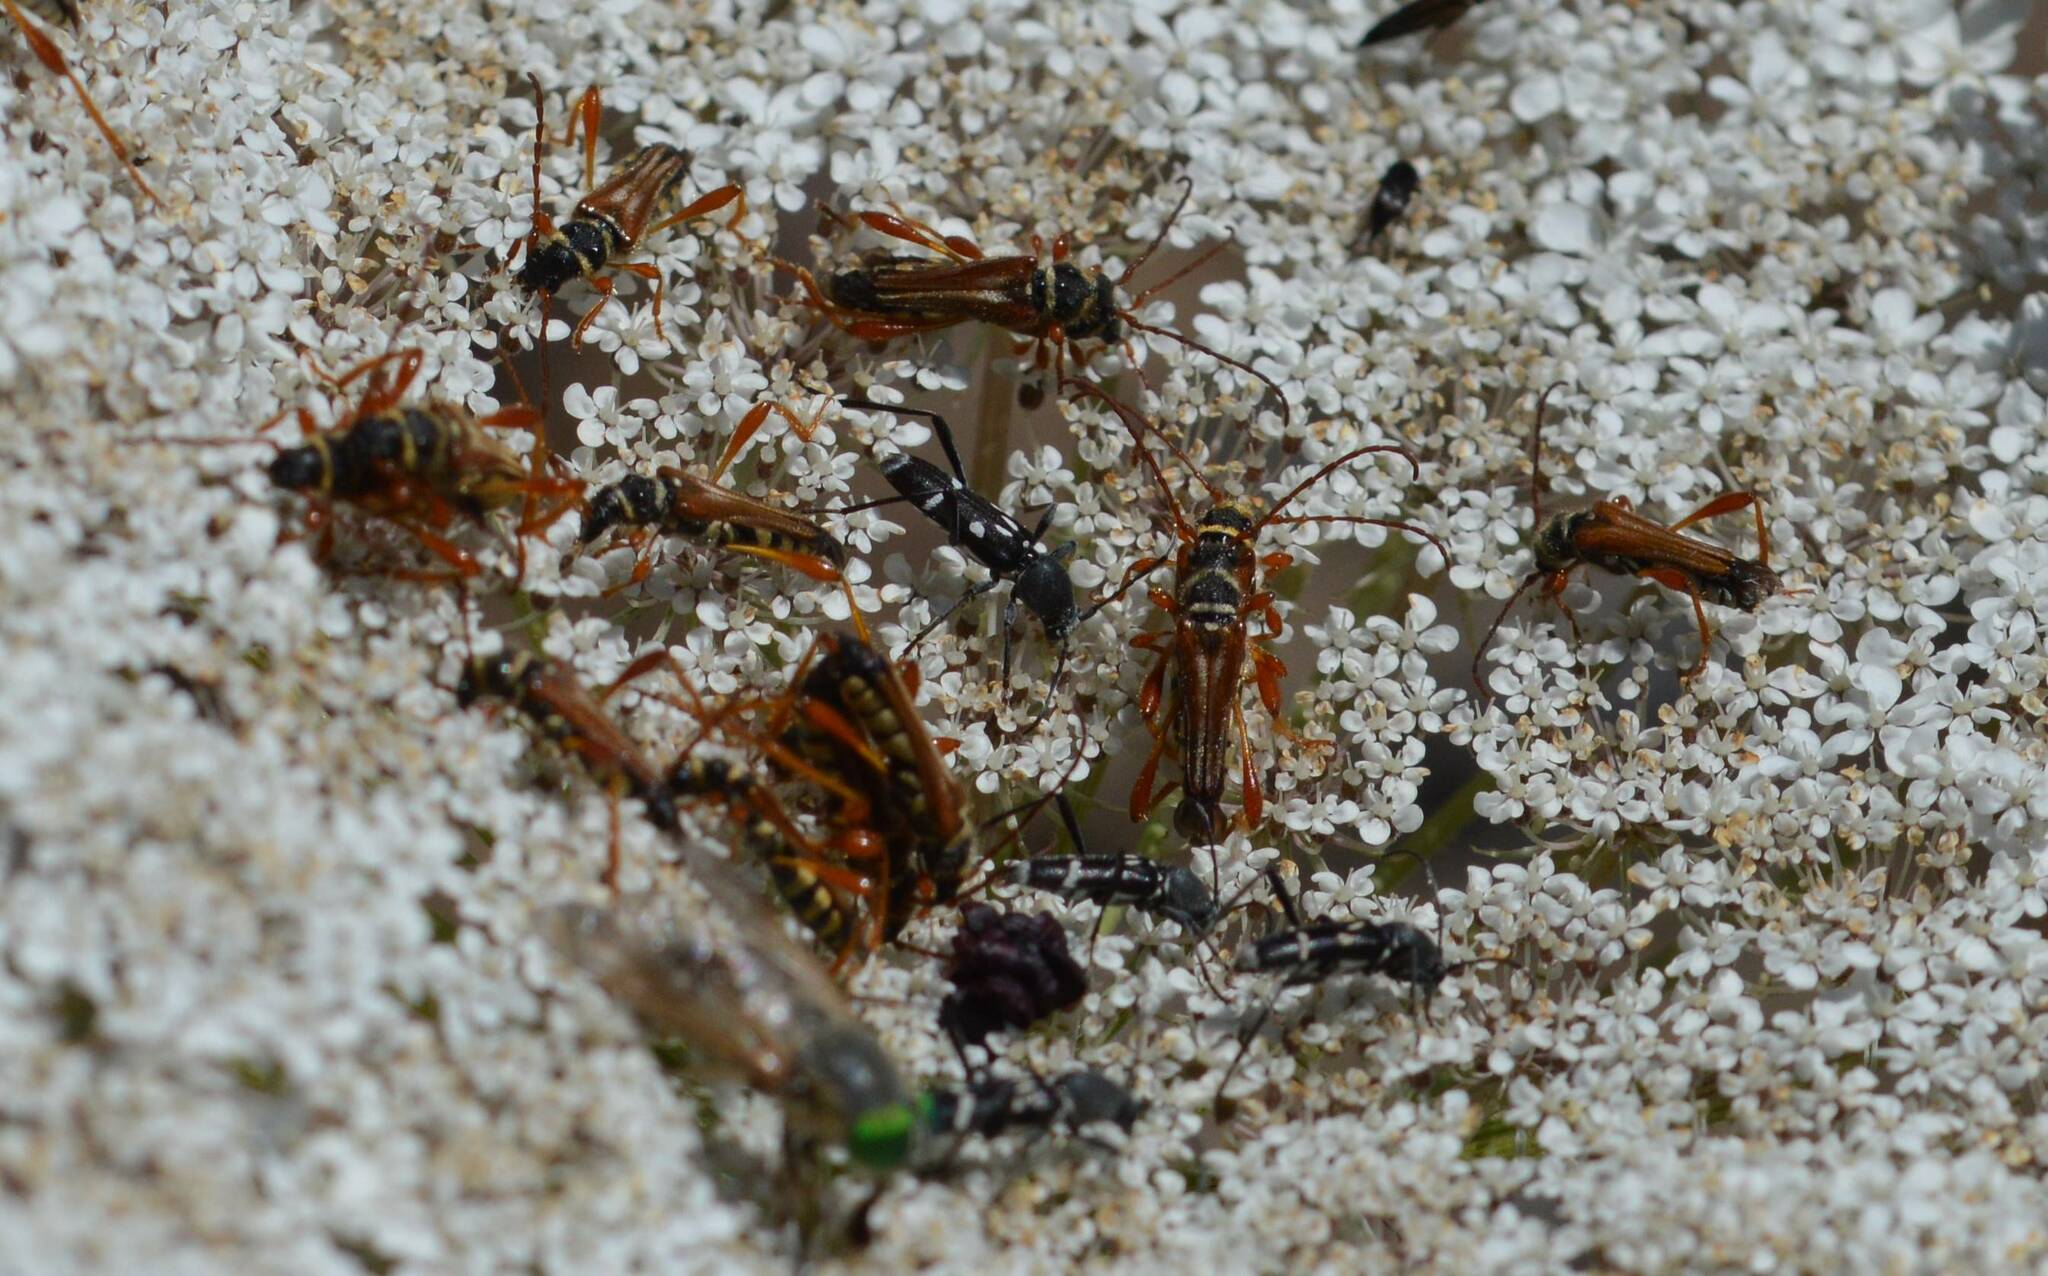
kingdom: Animalia
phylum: Arthropoda
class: Insecta
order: Coleoptera
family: Cerambycidae
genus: Stenopterus
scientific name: Stenopterus mauritanicus
